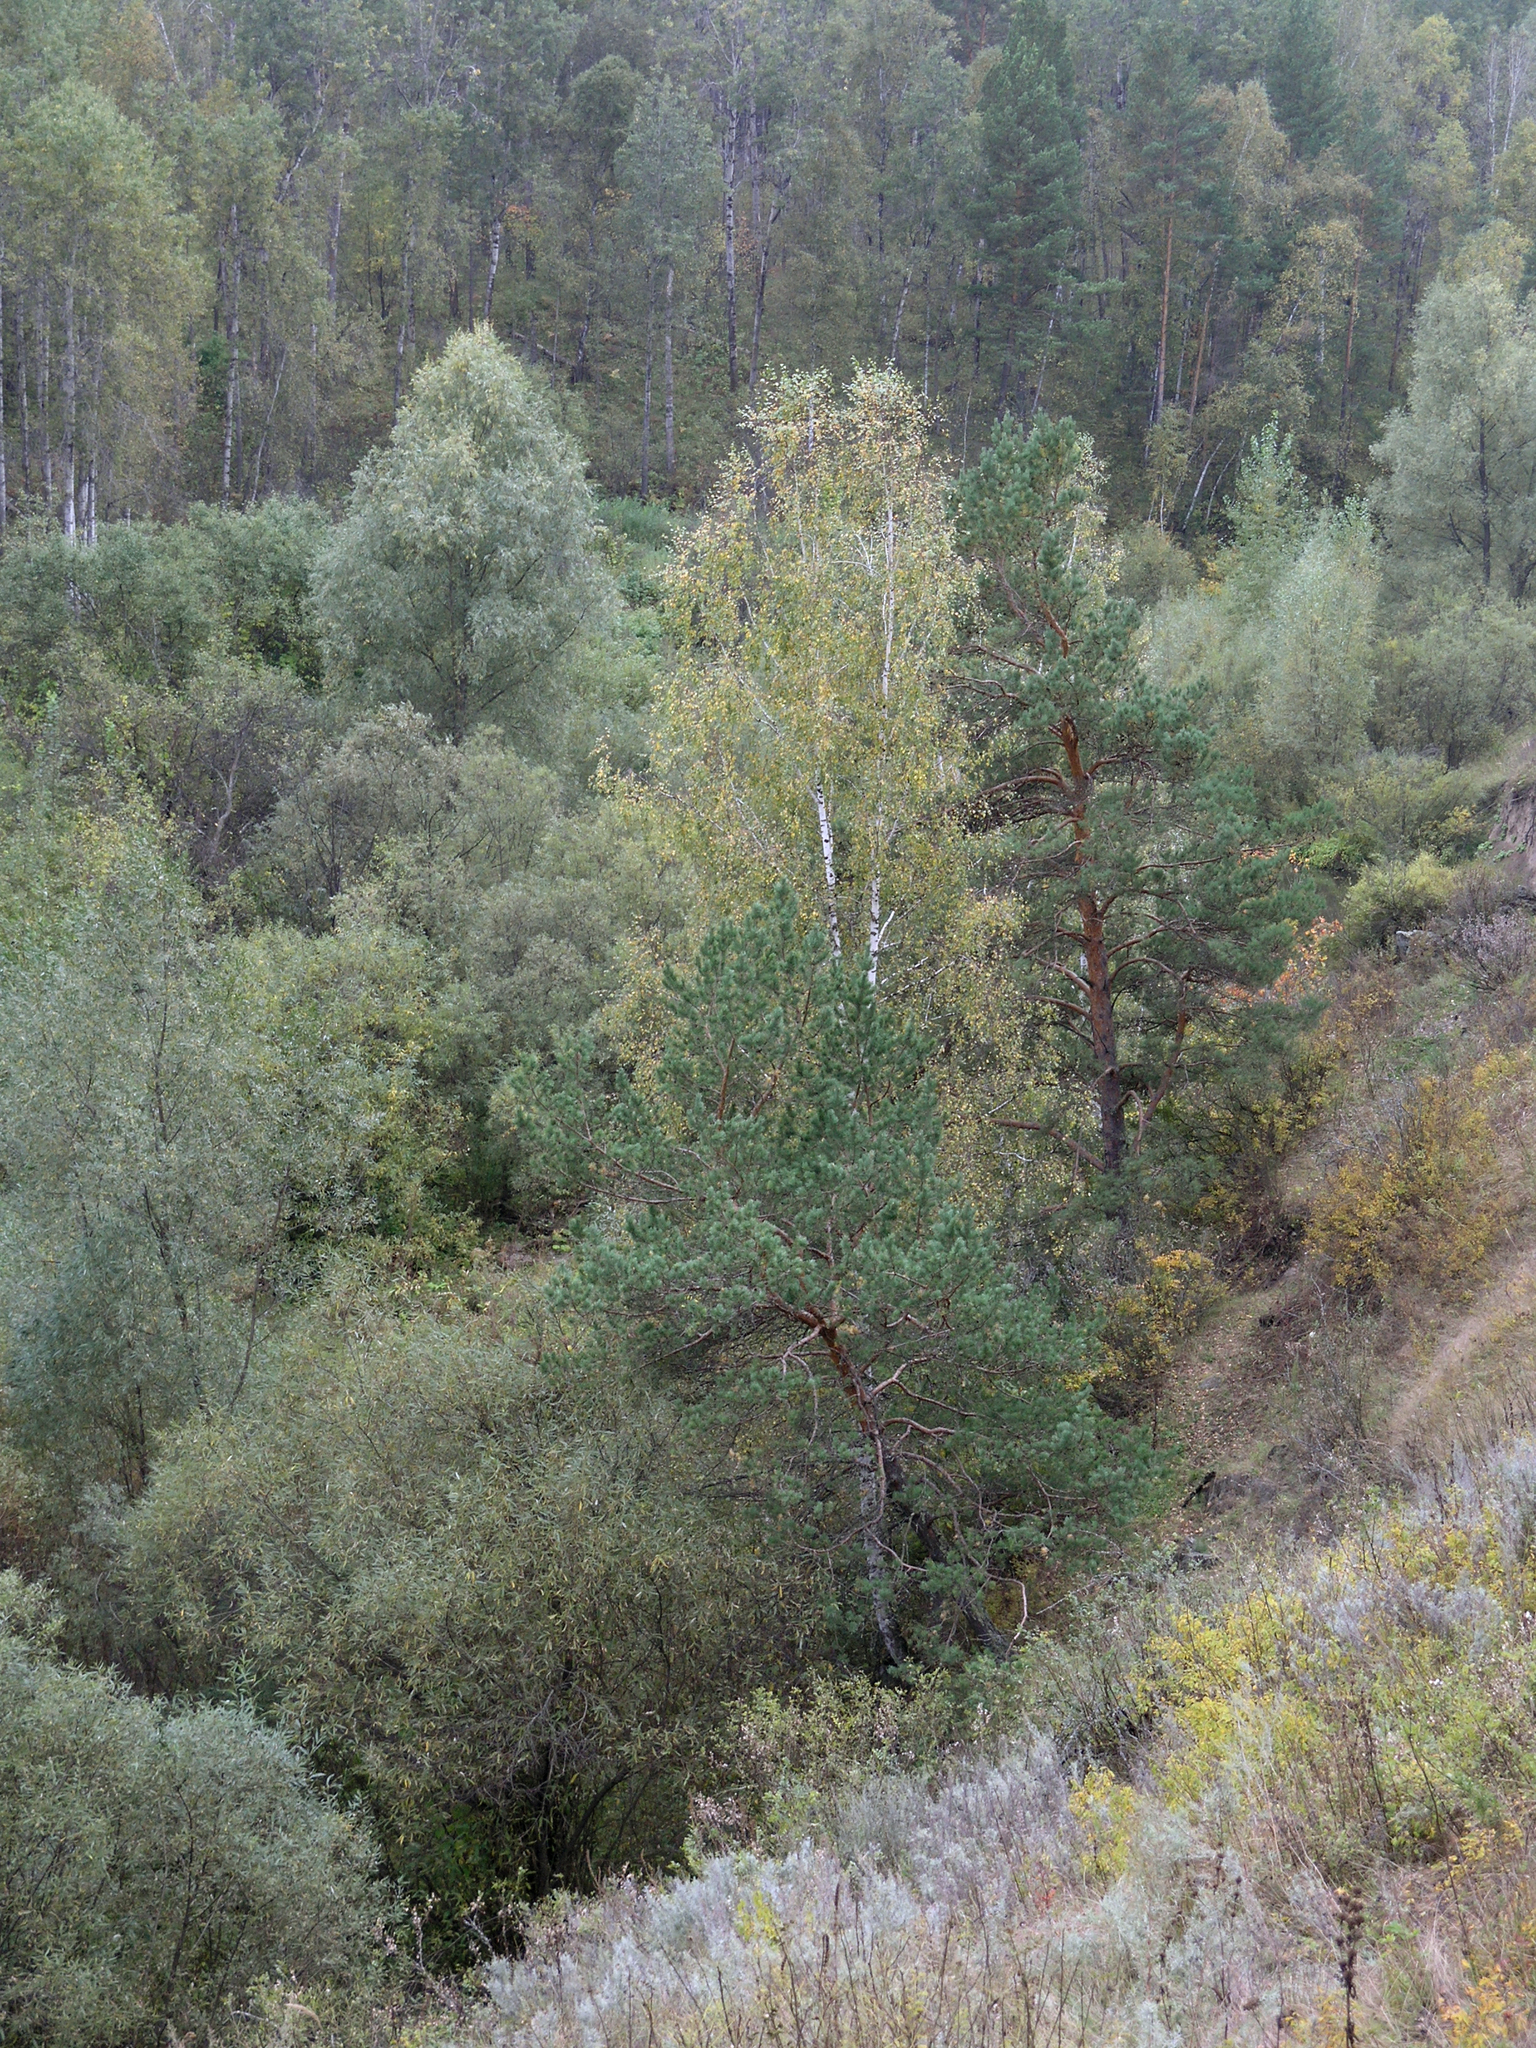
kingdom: Plantae
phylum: Tracheophyta
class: Pinopsida
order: Pinales
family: Pinaceae
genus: Pinus
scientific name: Pinus sylvestris
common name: Scots pine
